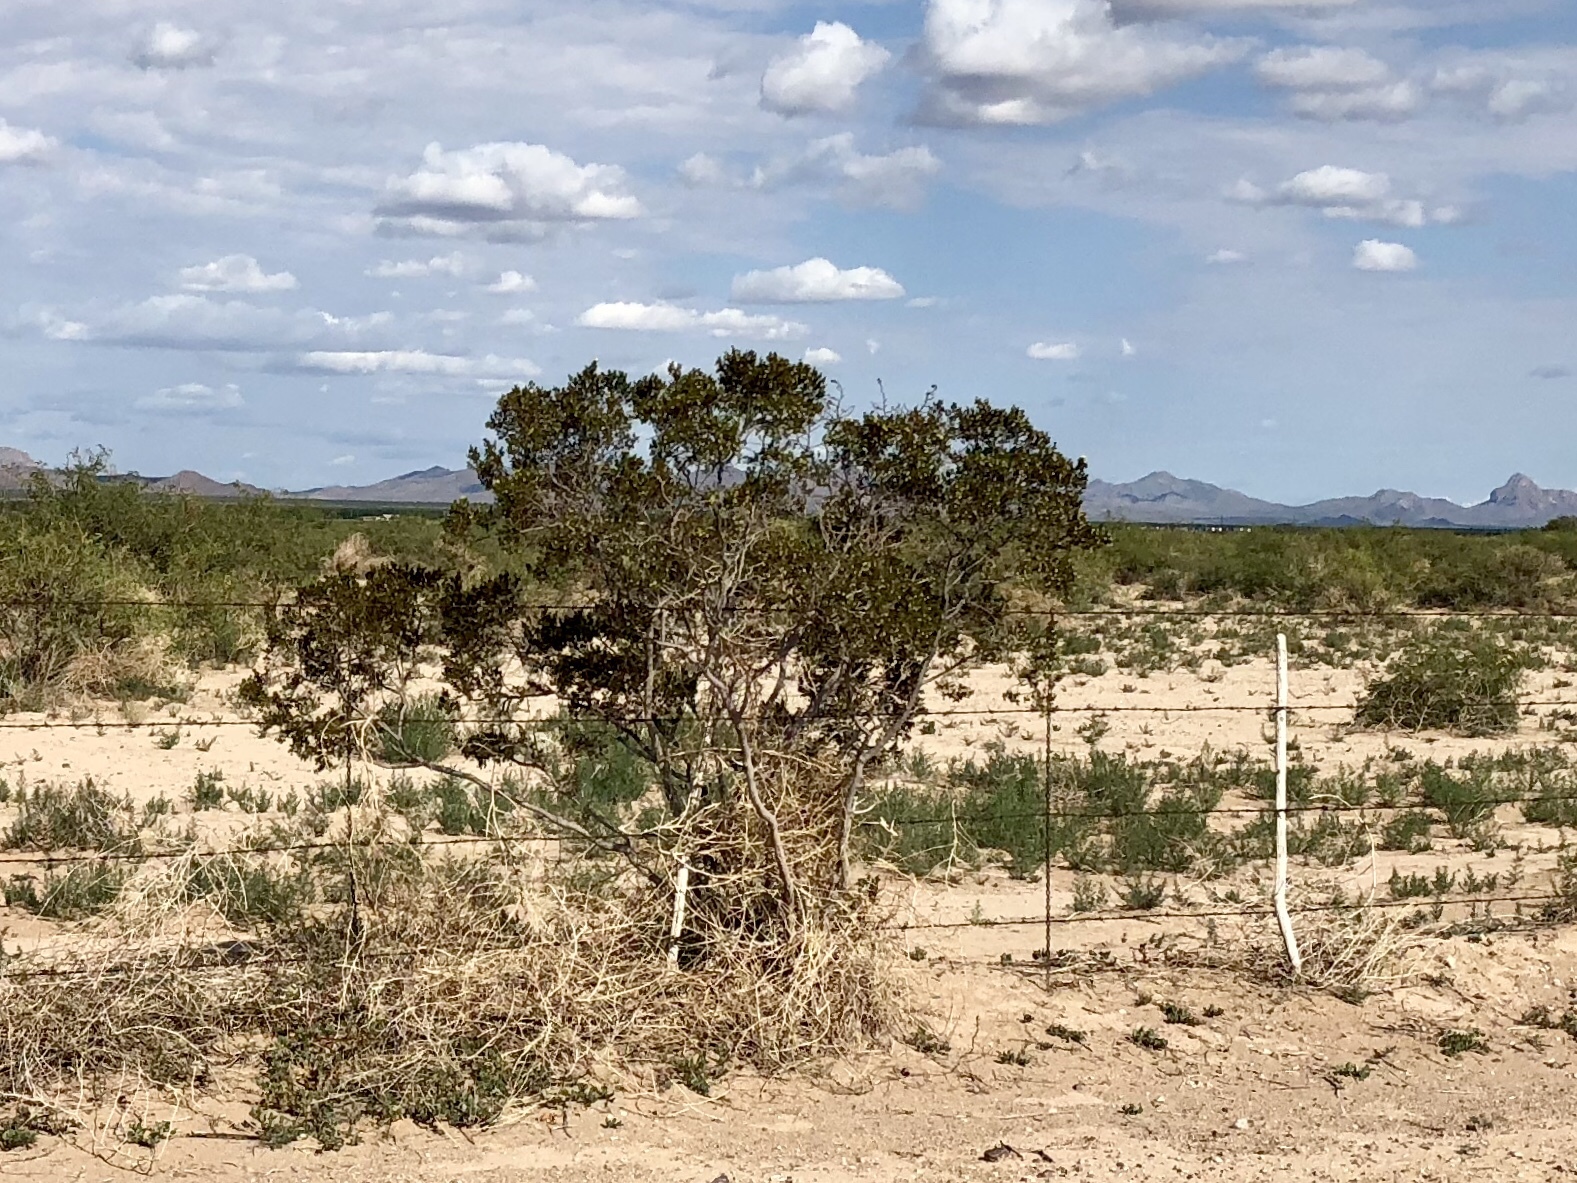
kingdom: Plantae
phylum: Tracheophyta
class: Magnoliopsida
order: Zygophyllales
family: Zygophyllaceae
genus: Larrea
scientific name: Larrea tridentata
